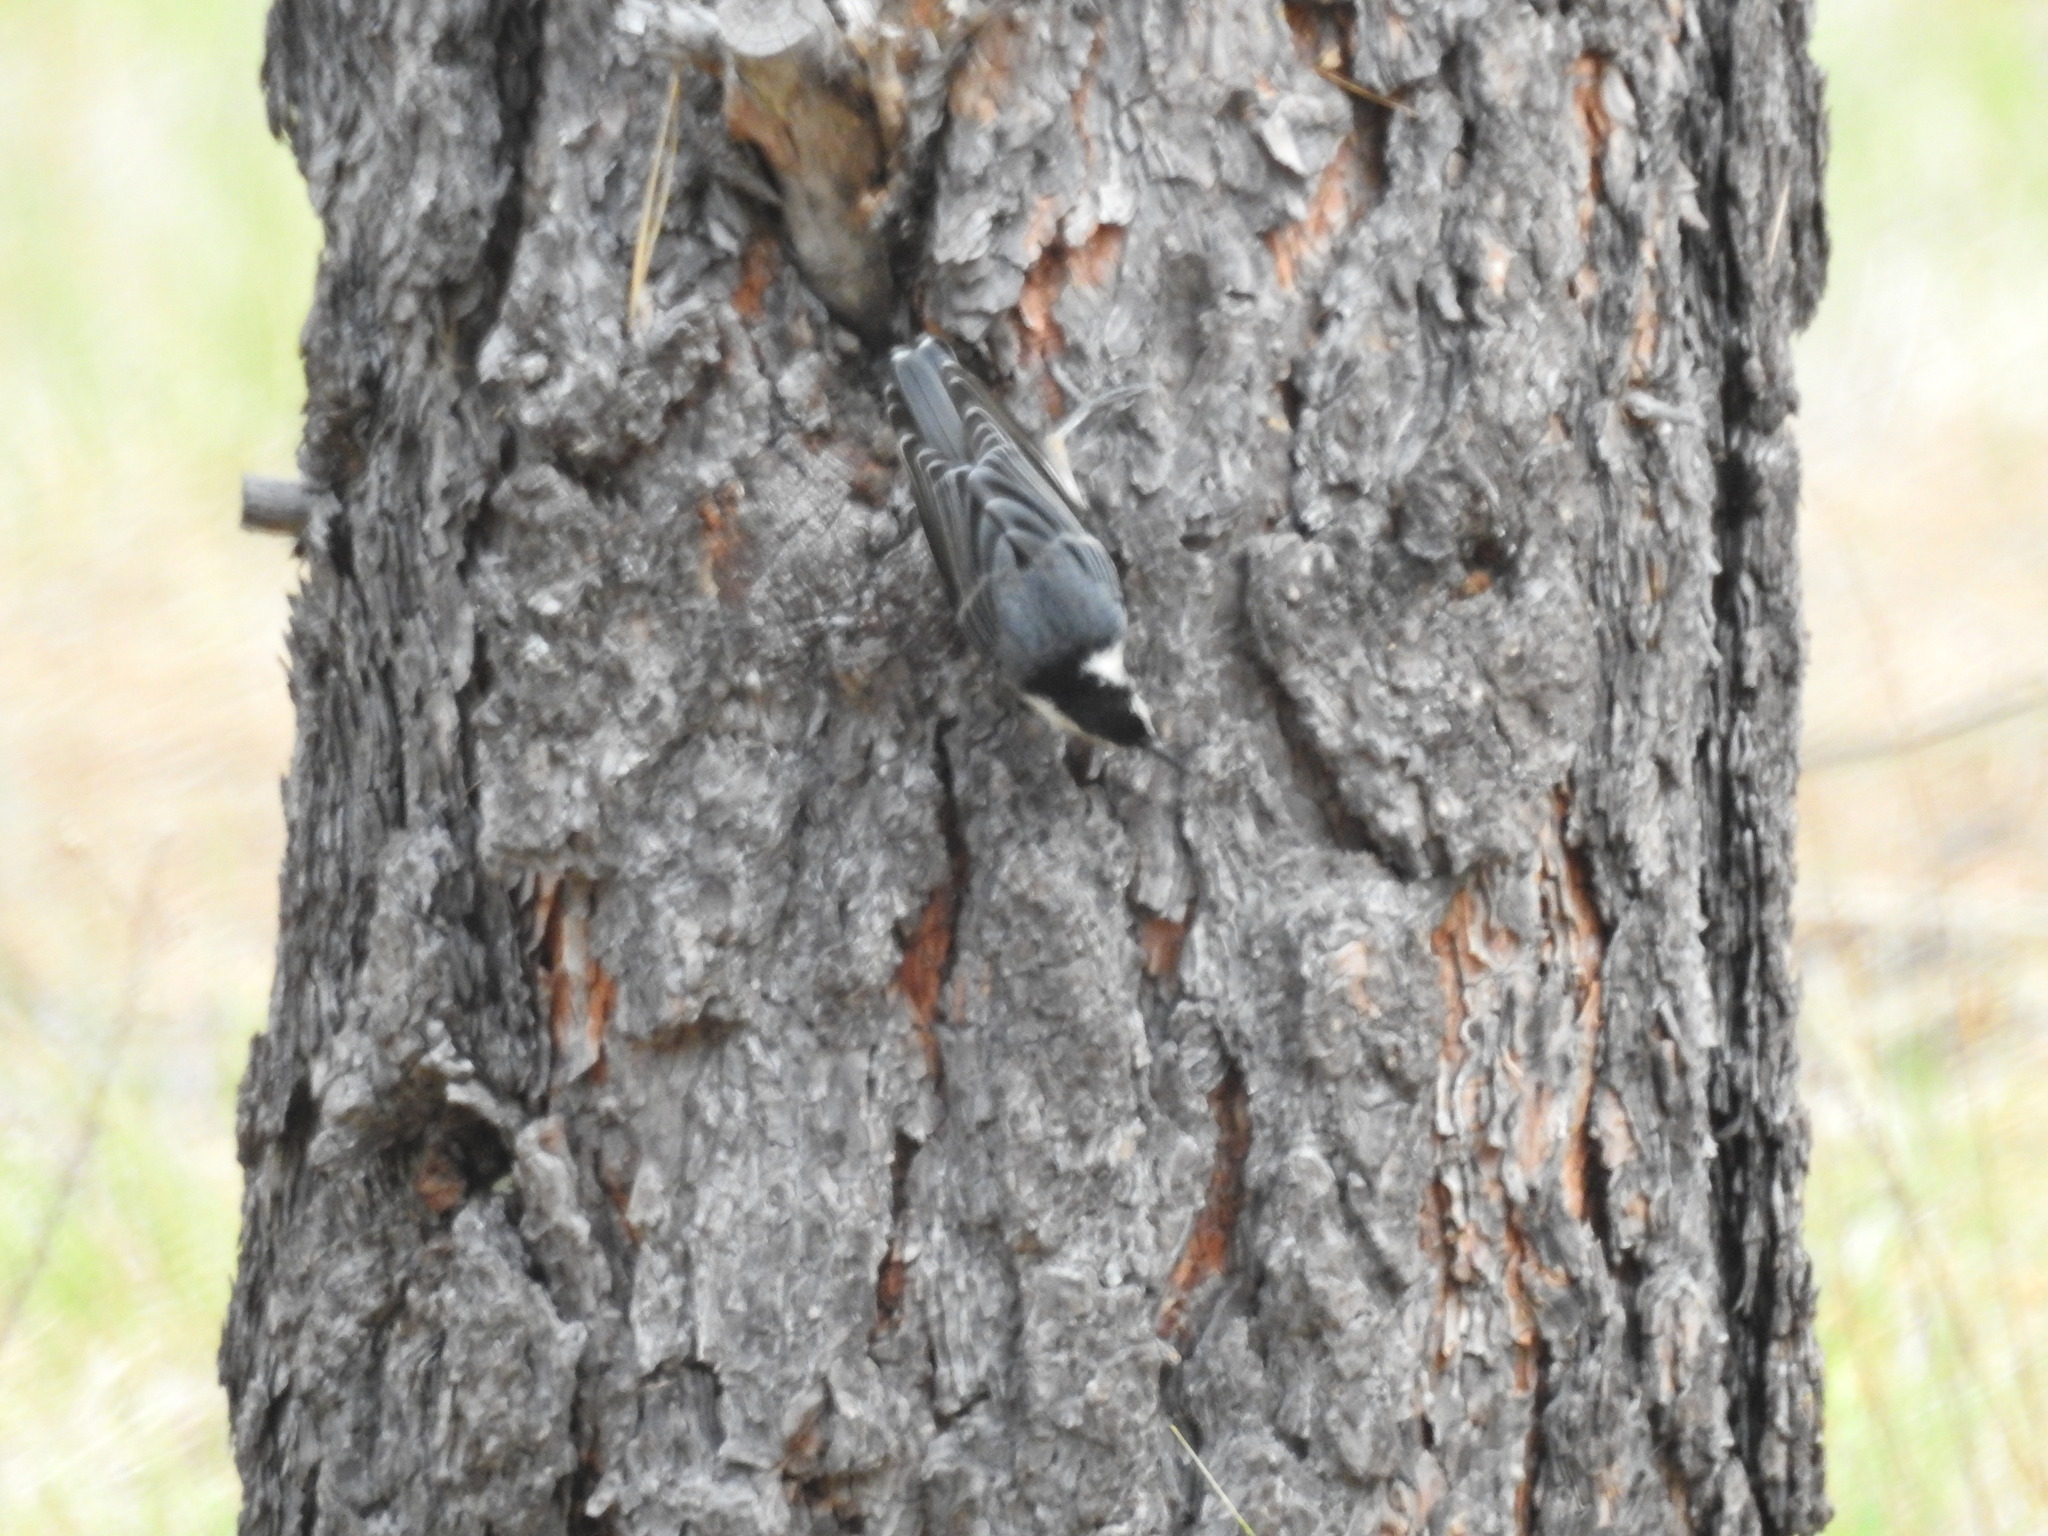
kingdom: Animalia
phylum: Chordata
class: Aves
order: Passeriformes
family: Sittidae
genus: Sitta
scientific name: Sitta carolinensis
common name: White-breasted nuthatch
